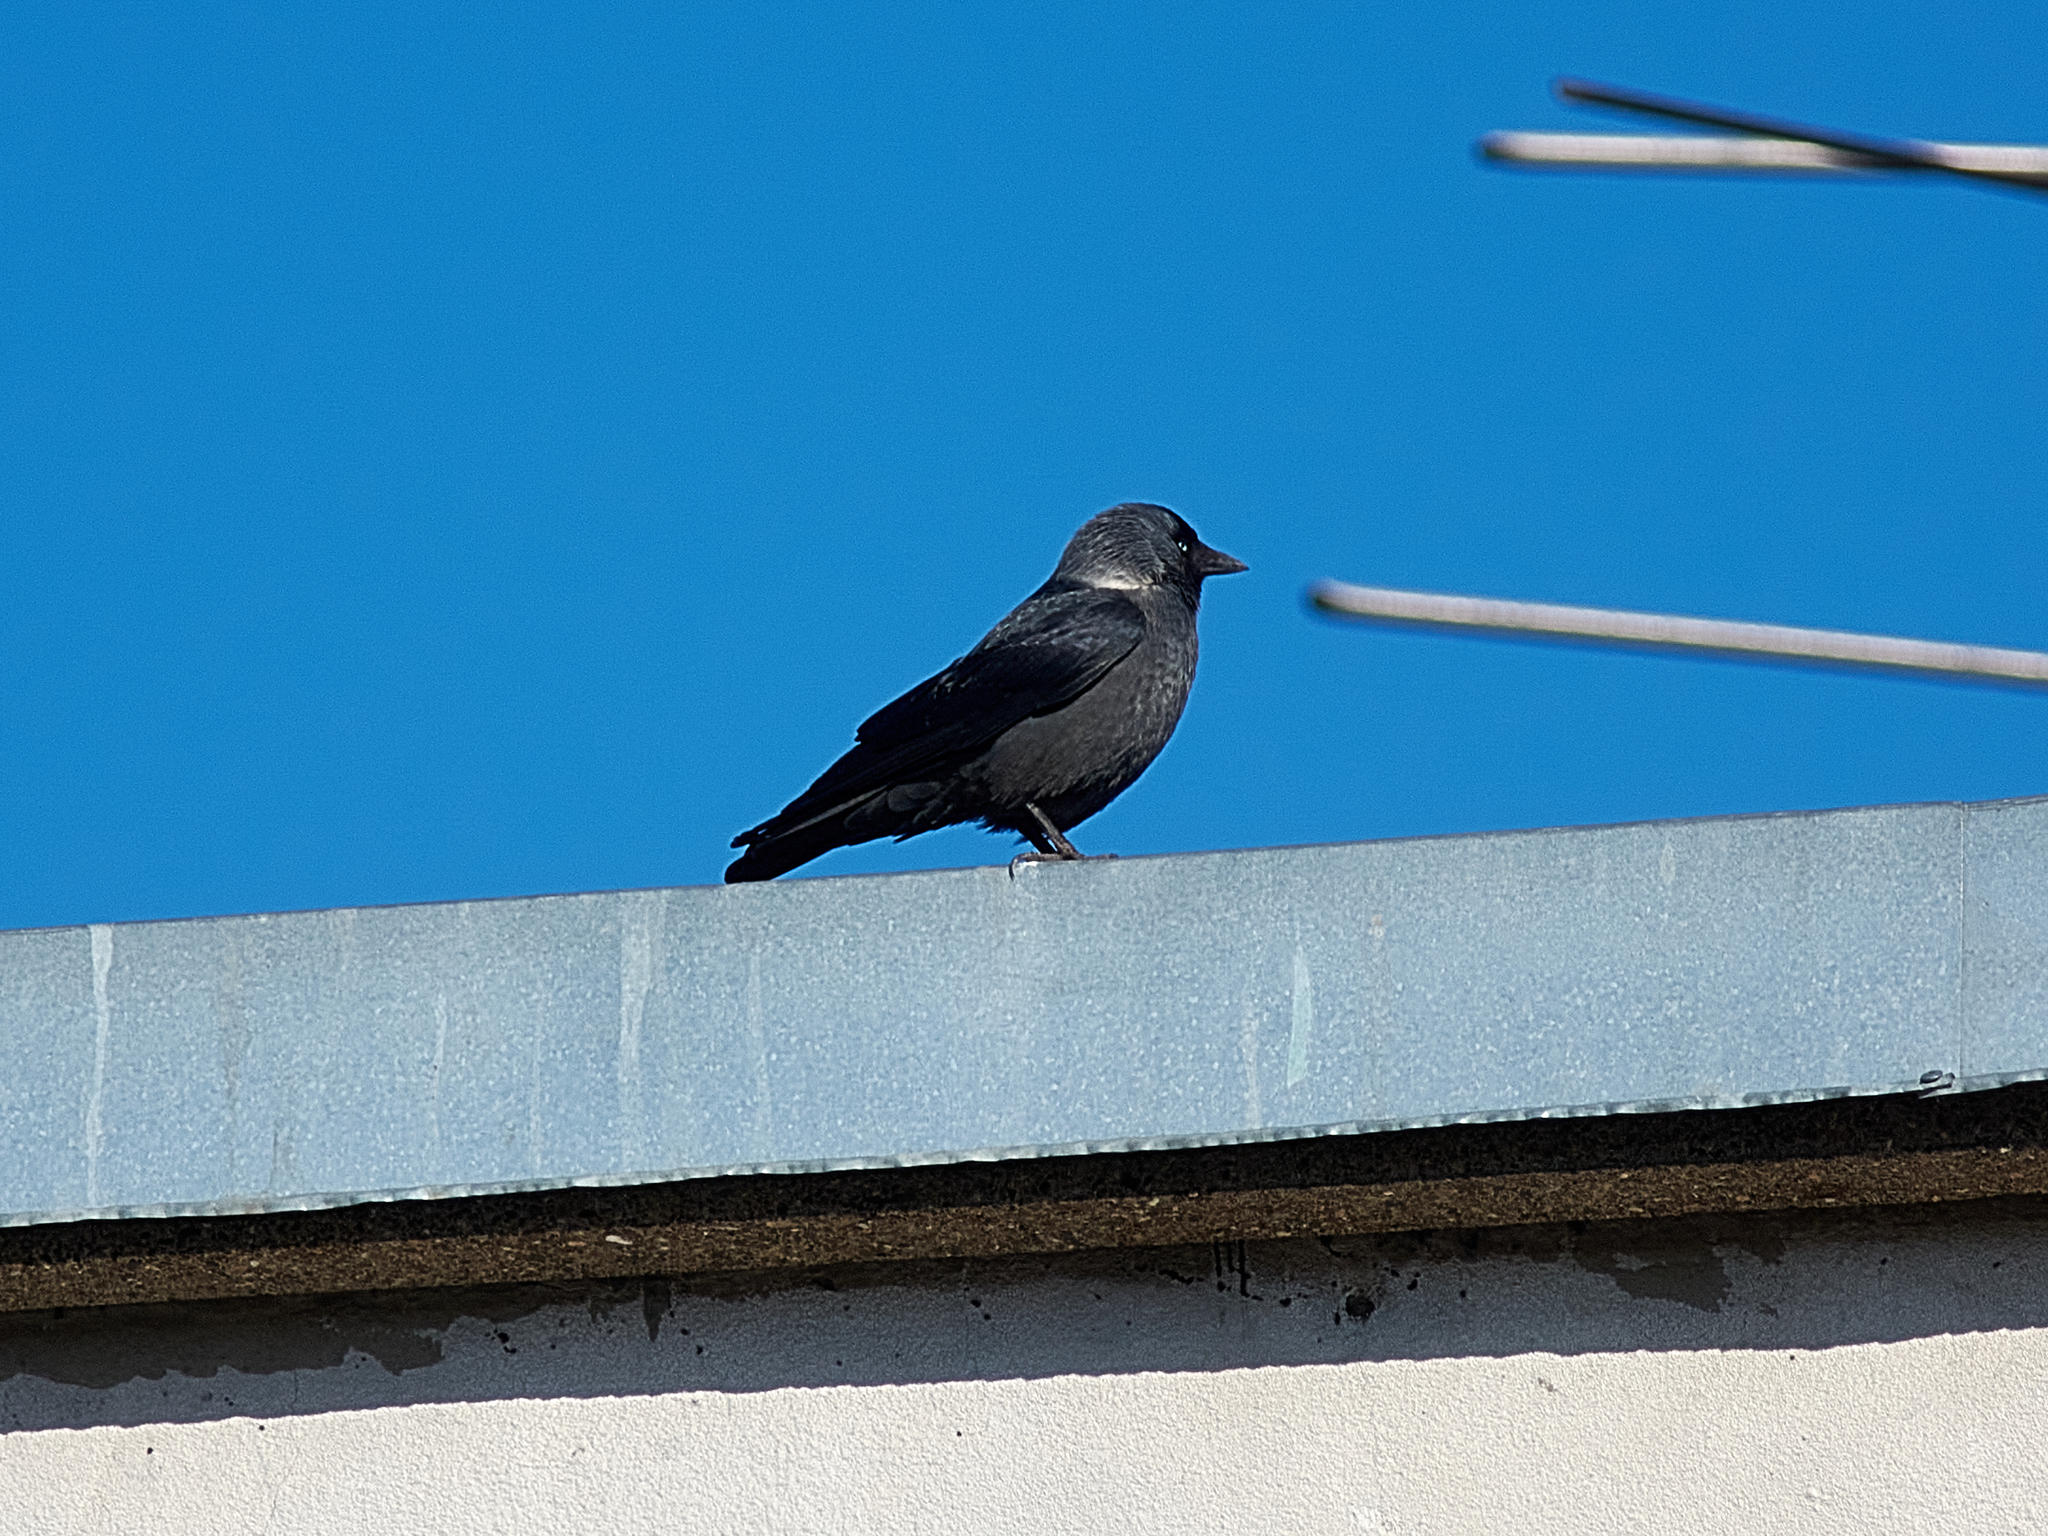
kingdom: Animalia
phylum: Chordata
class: Aves
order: Passeriformes
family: Corvidae
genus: Coloeus
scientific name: Coloeus monedula
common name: Western jackdaw
